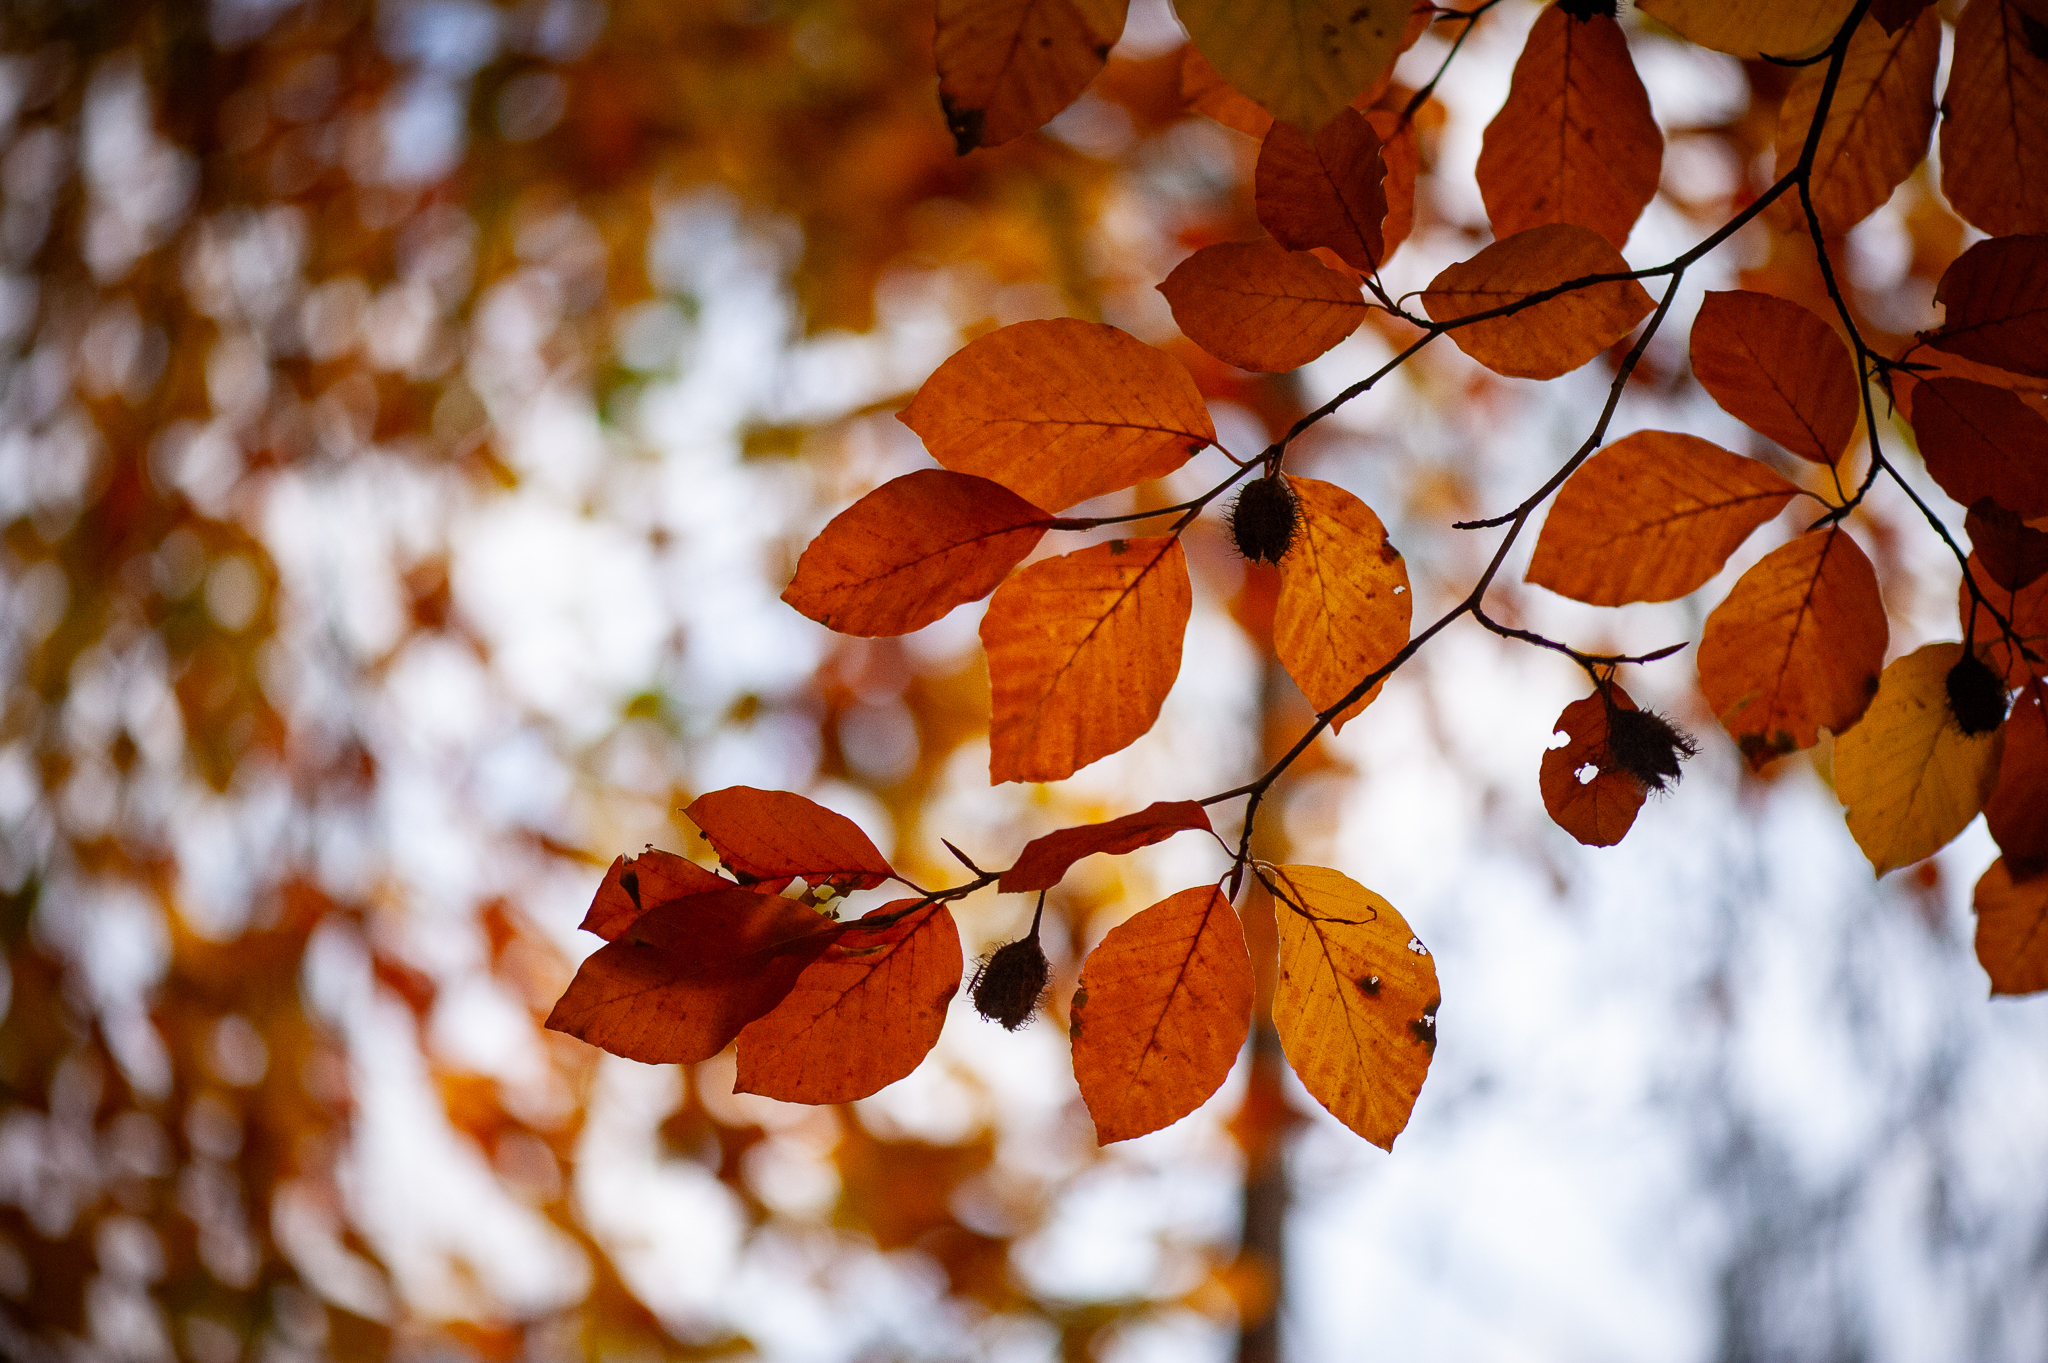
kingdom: Plantae
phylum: Tracheophyta
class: Magnoliopsida
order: Fagales
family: Fagaceae
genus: Fagus
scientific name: Fagus sylvatica
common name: Beech
